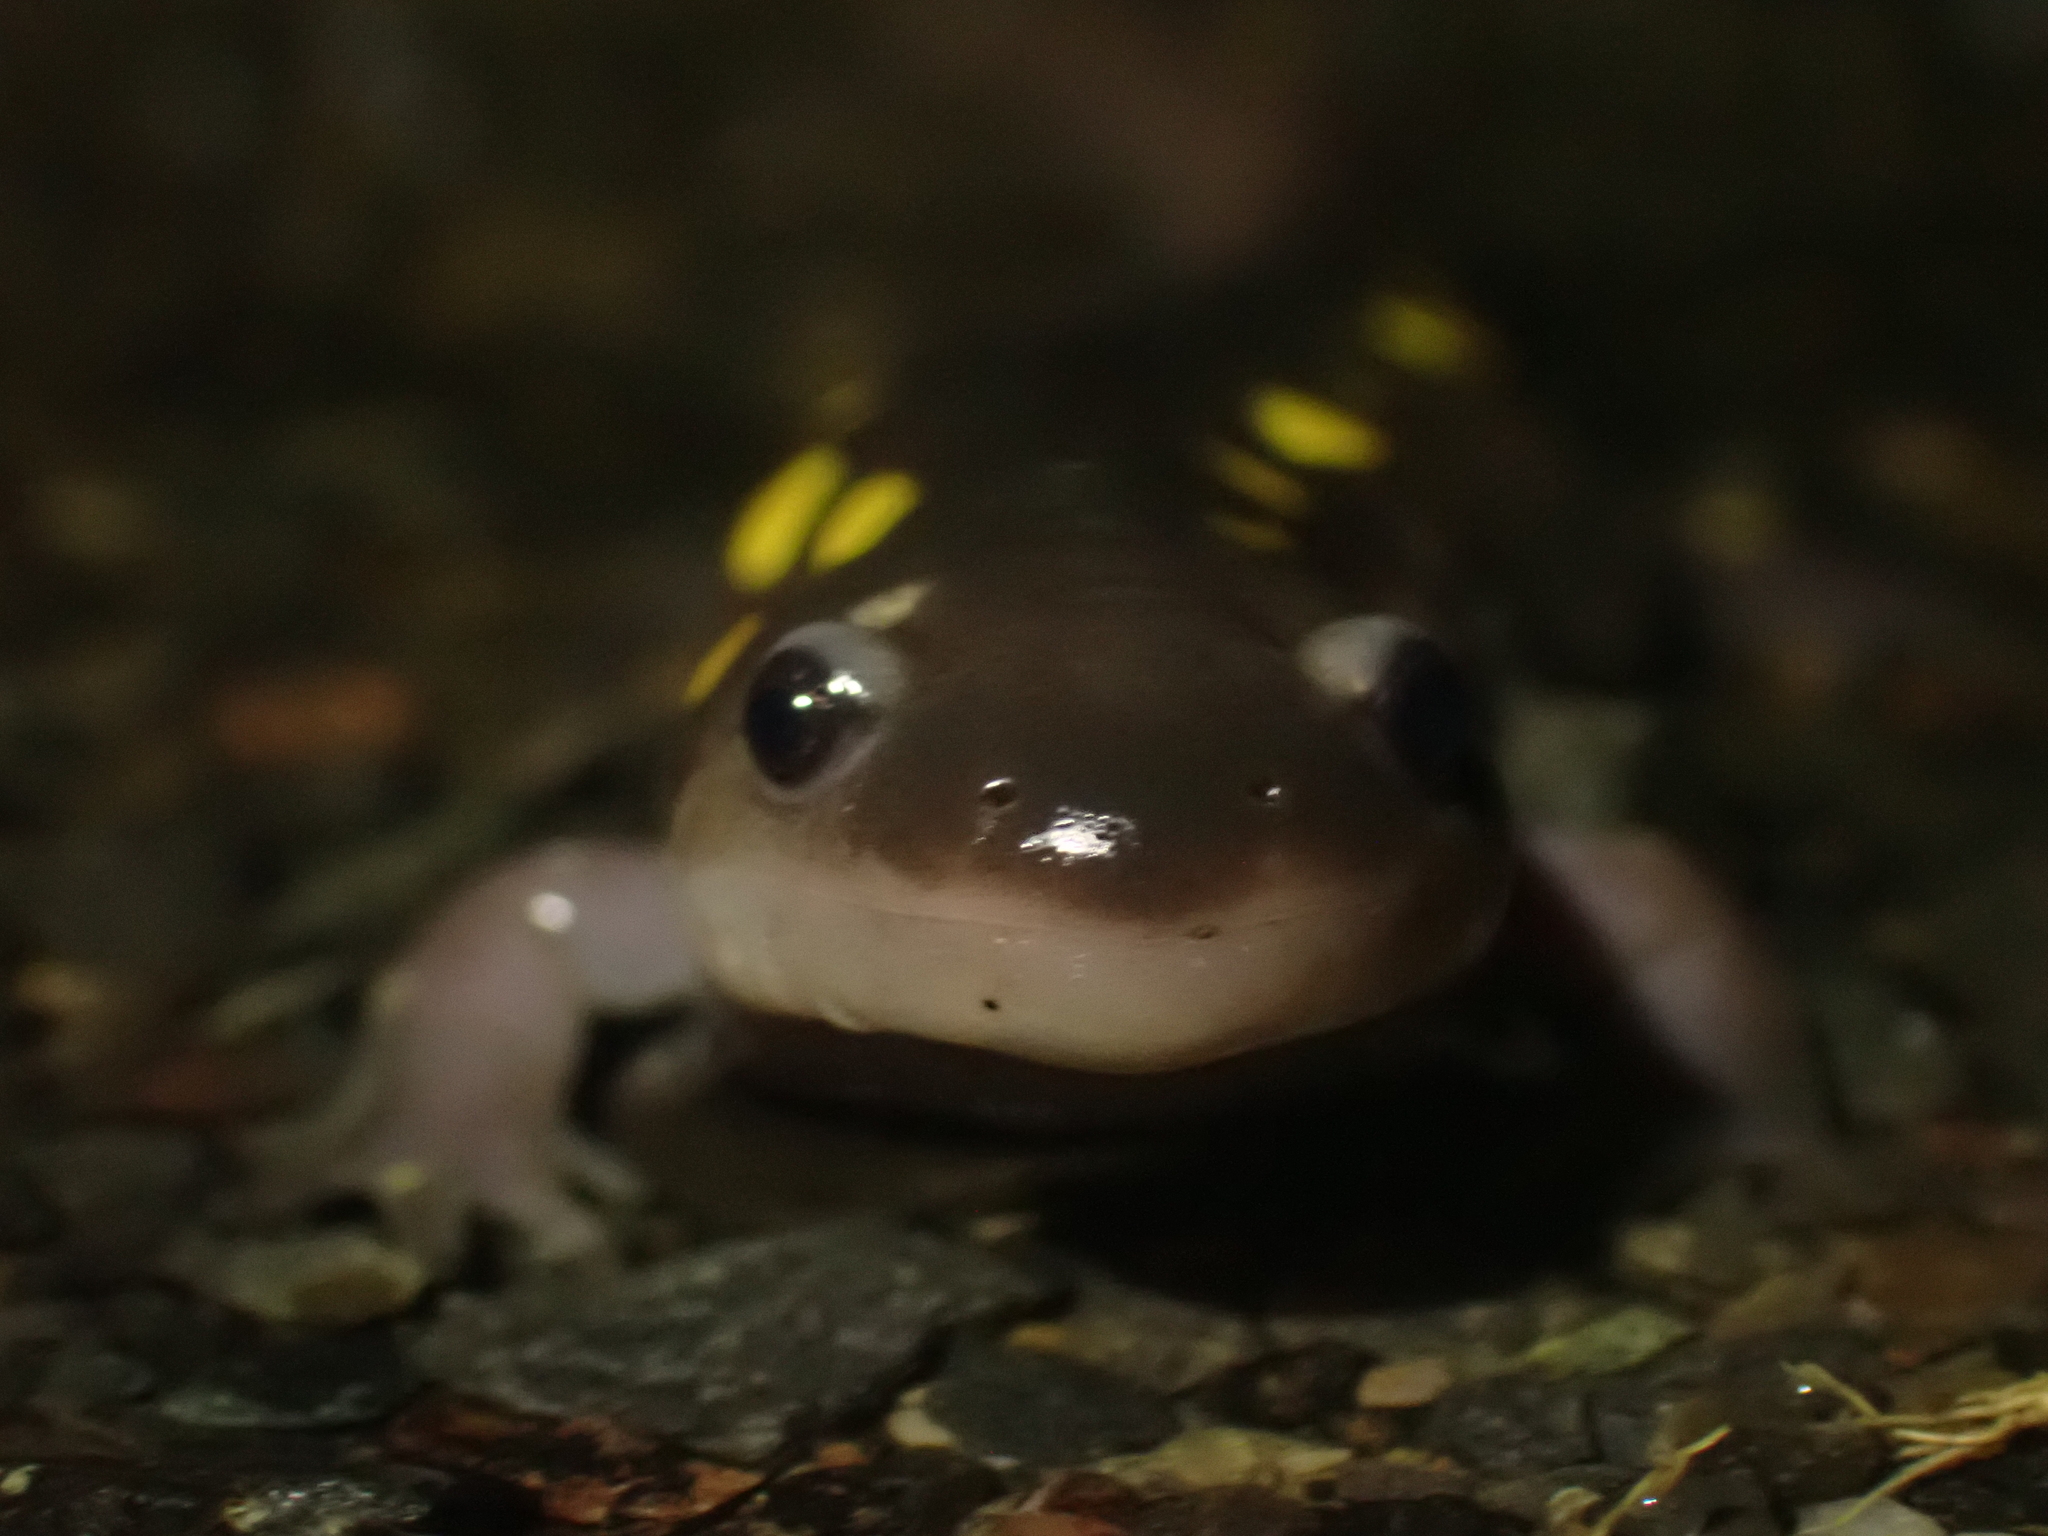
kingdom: Animalia
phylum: Chordata
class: Amphibia
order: Caudata
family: Ambystomatidae
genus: Ambystoma
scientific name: Ambystoma maculatum
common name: Spotted salamander
